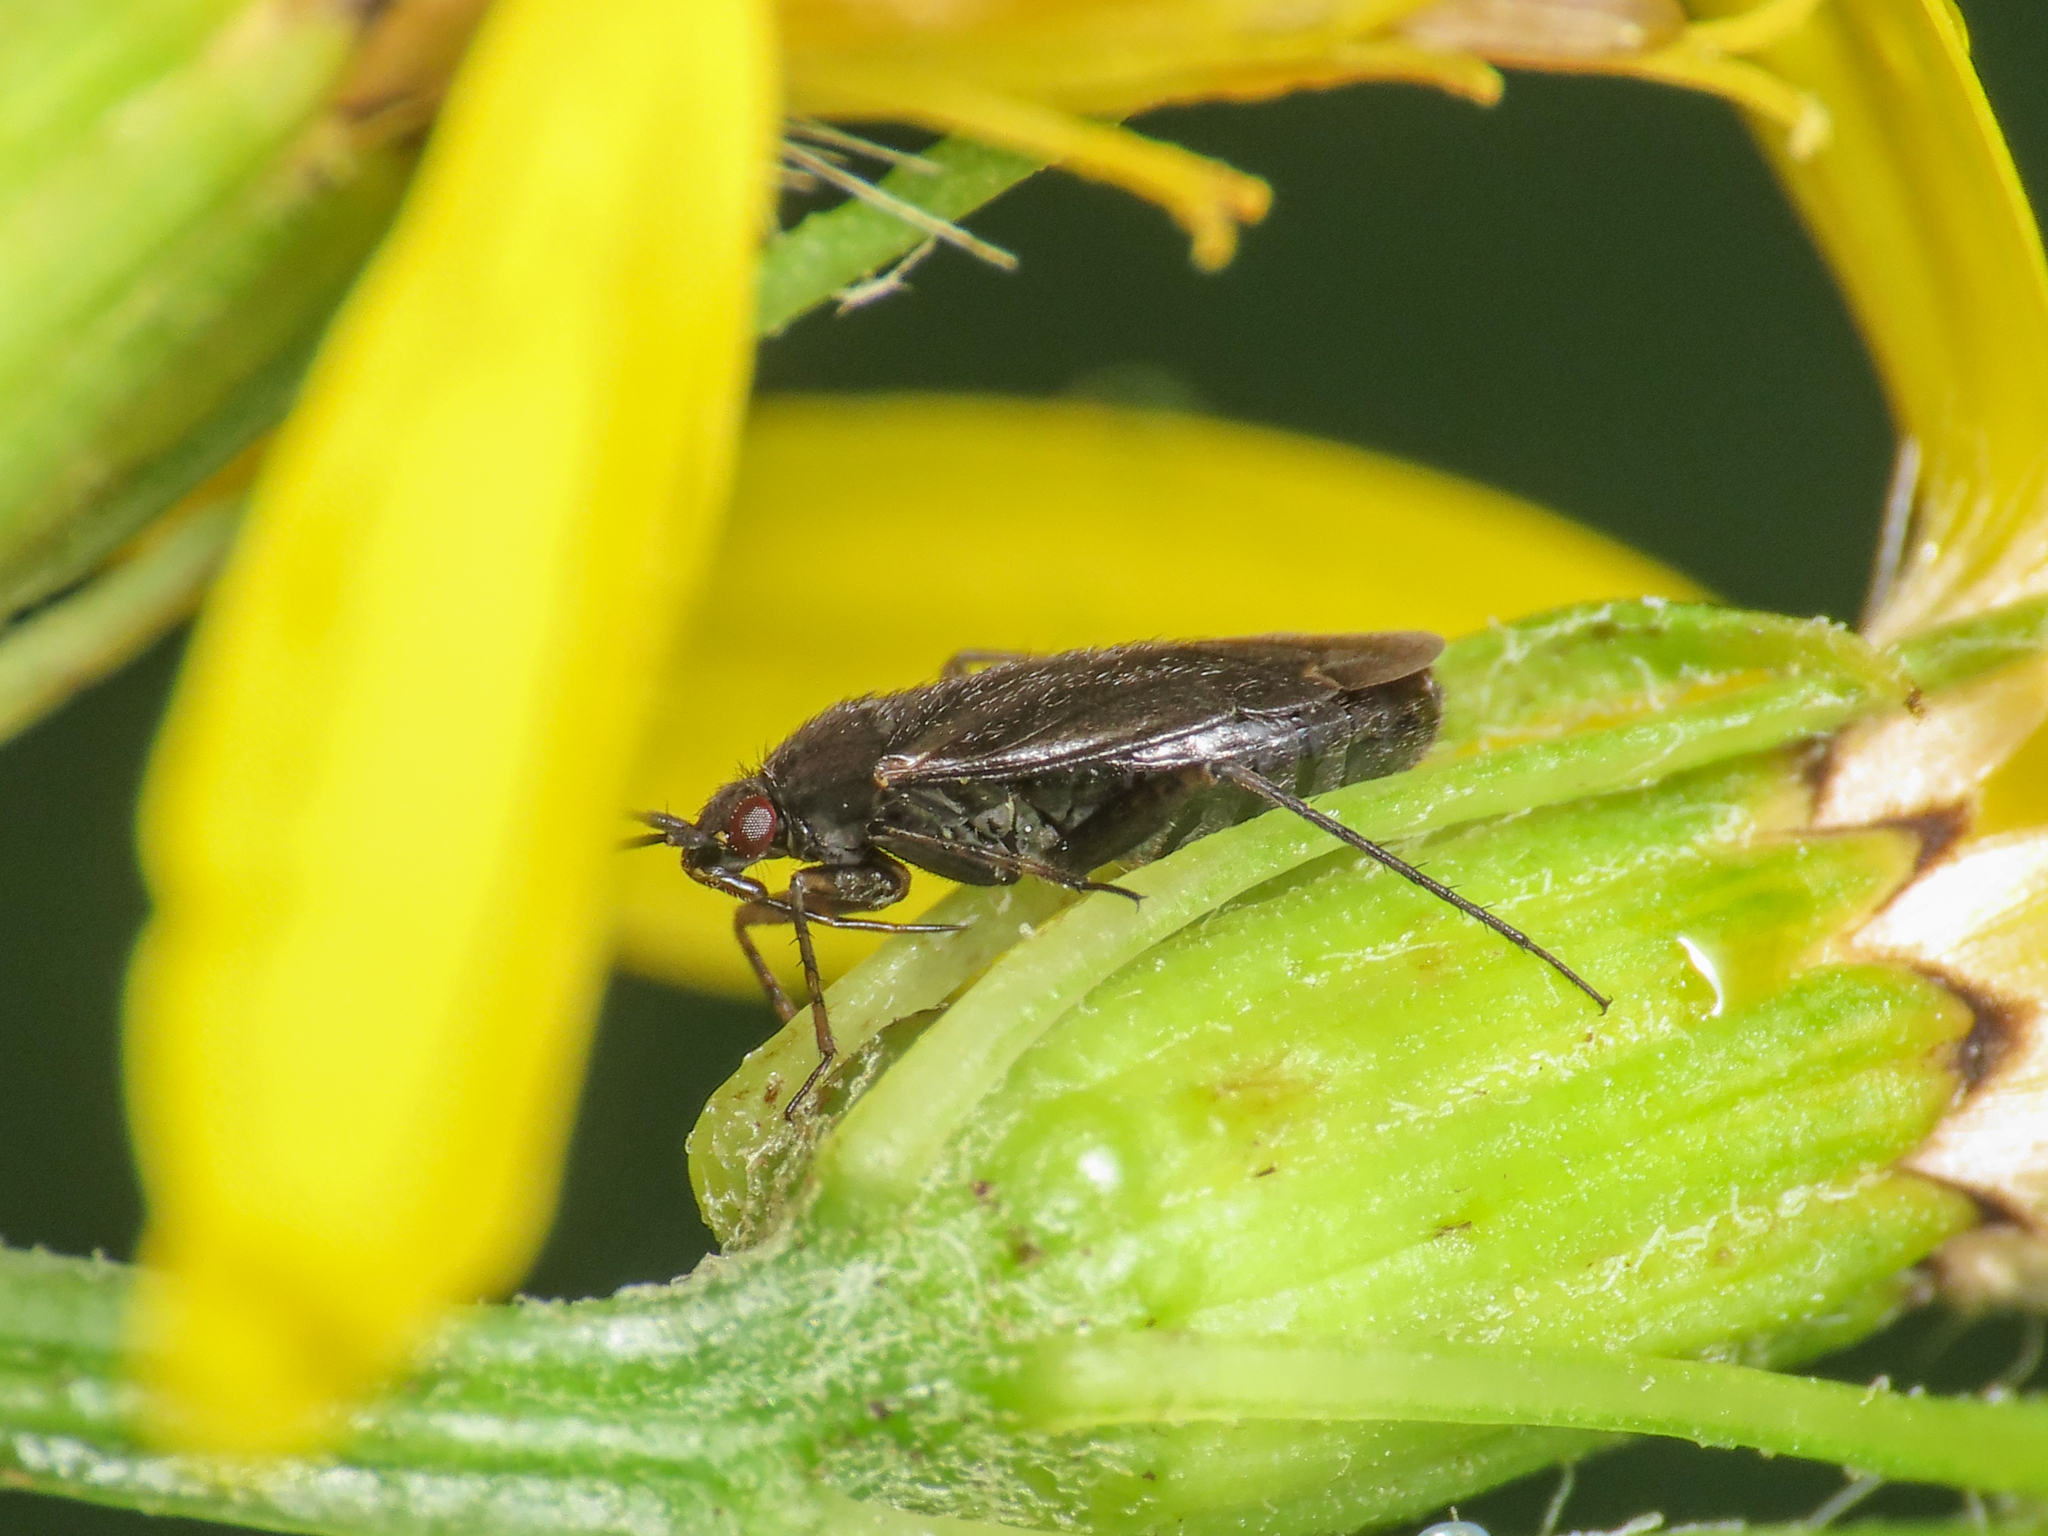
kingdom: Animalia
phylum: Arthropoda
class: Insecta
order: Hemiptera
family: Miridae
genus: Plagiognathus
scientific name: Plagiognathus arbustorum
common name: Plant bug
